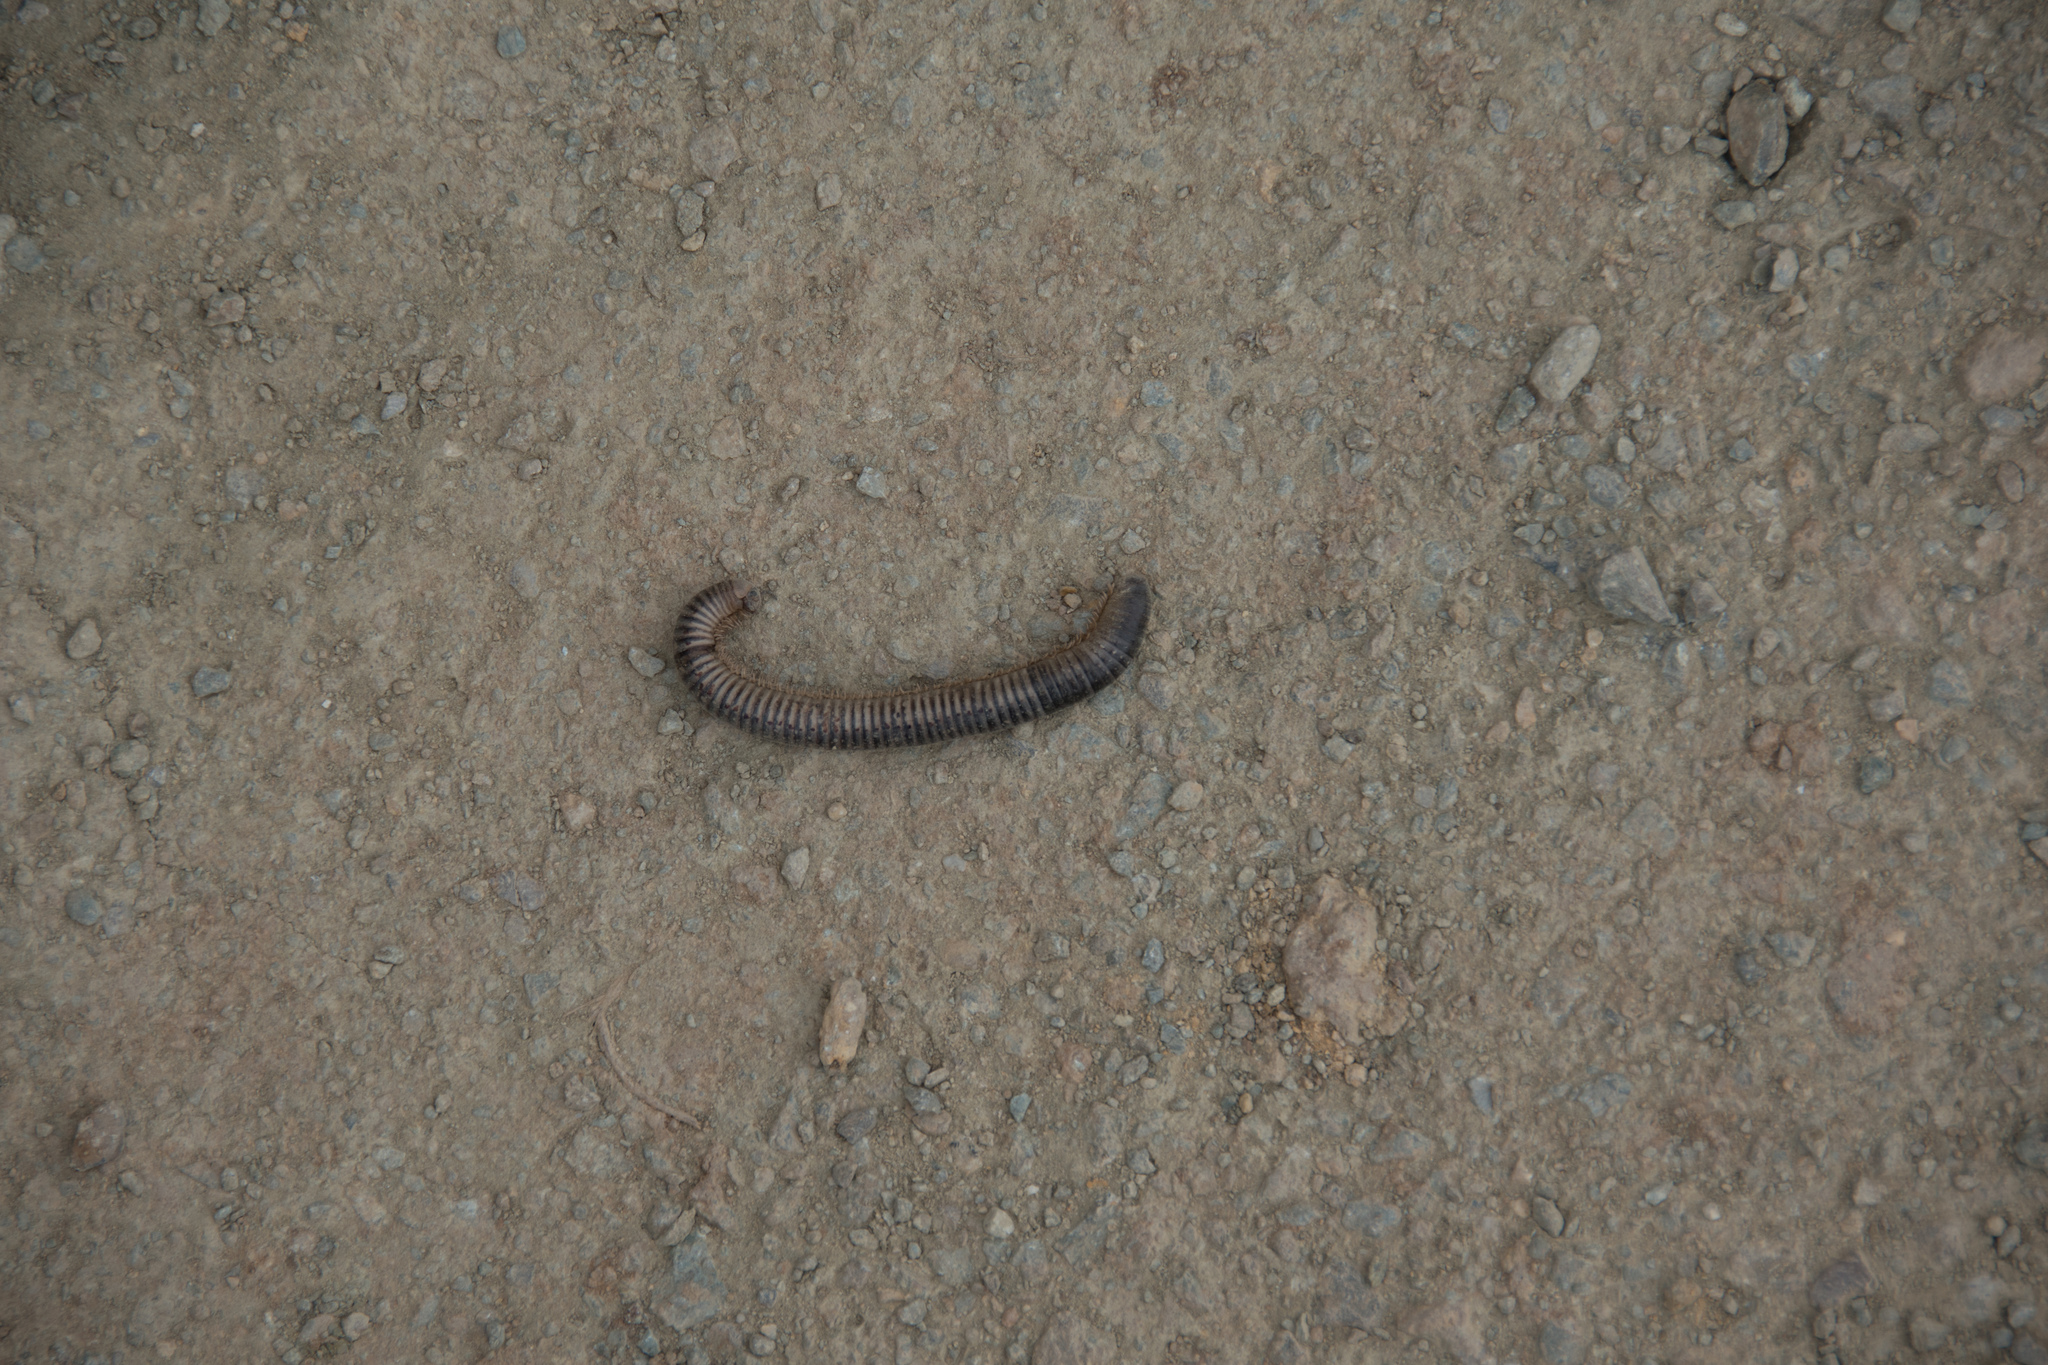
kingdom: Animalia
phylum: Arthropoda
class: Diplopoda
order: Julida
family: Julidae
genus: Pachyiulus
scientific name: Pachyiulus flavipes
